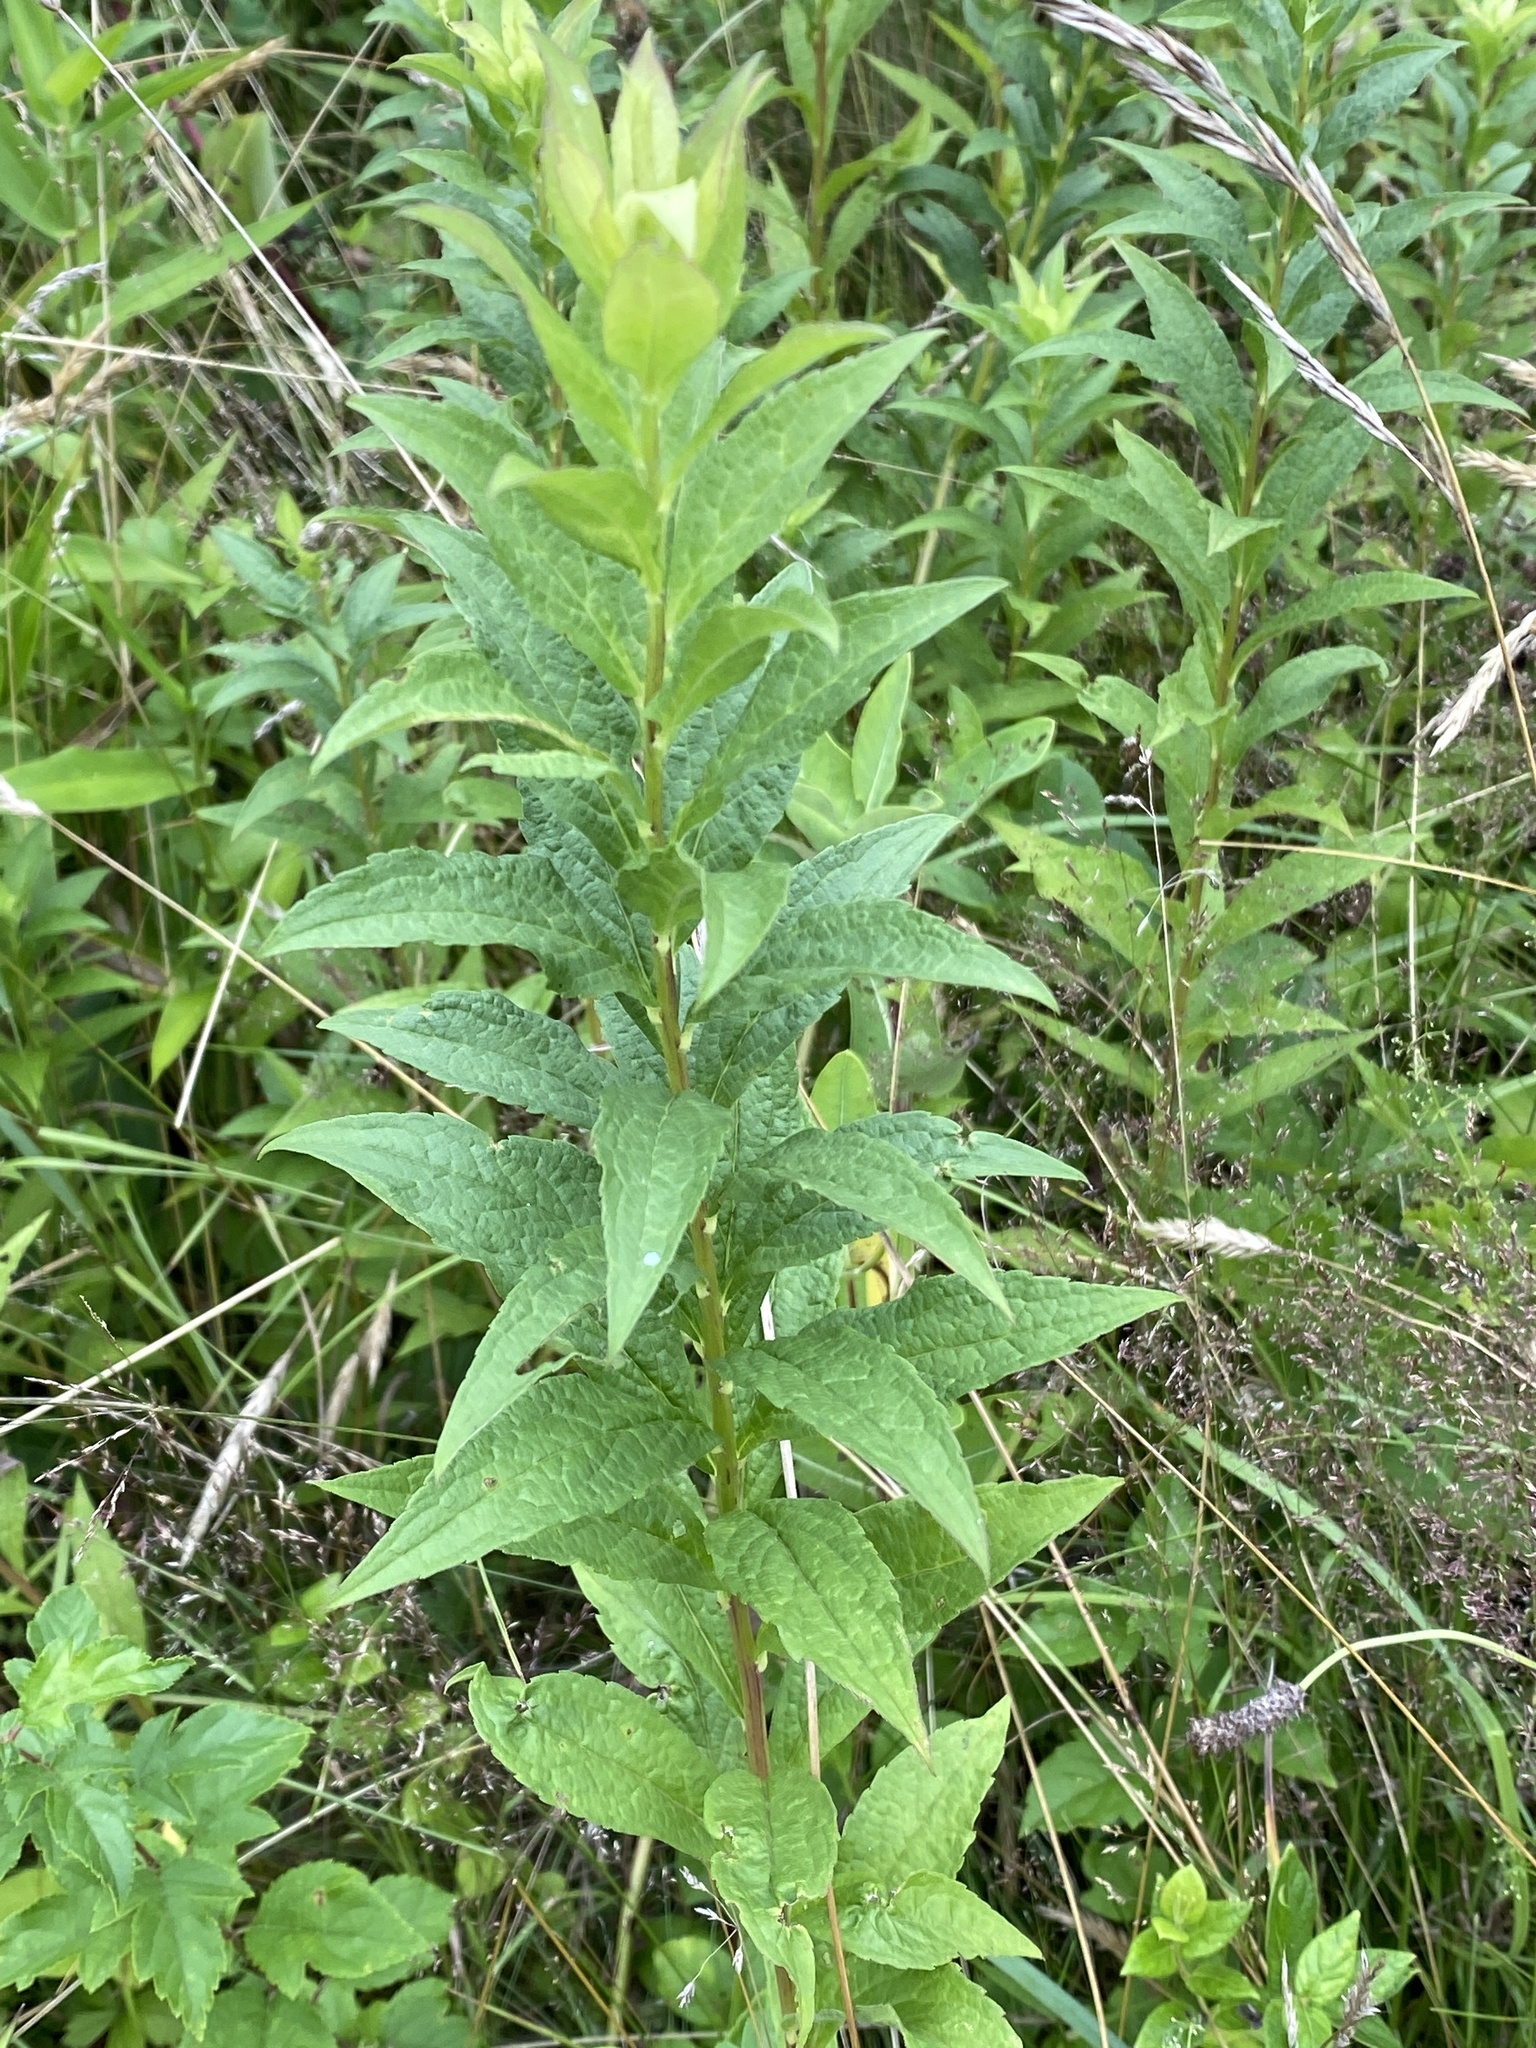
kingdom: Plantae
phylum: Tracheophyta
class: Magnoliopsida
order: Asterales
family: Asteraceae
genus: Solidago
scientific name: Solidago rugosa
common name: Rough-stemmed goldenrod
